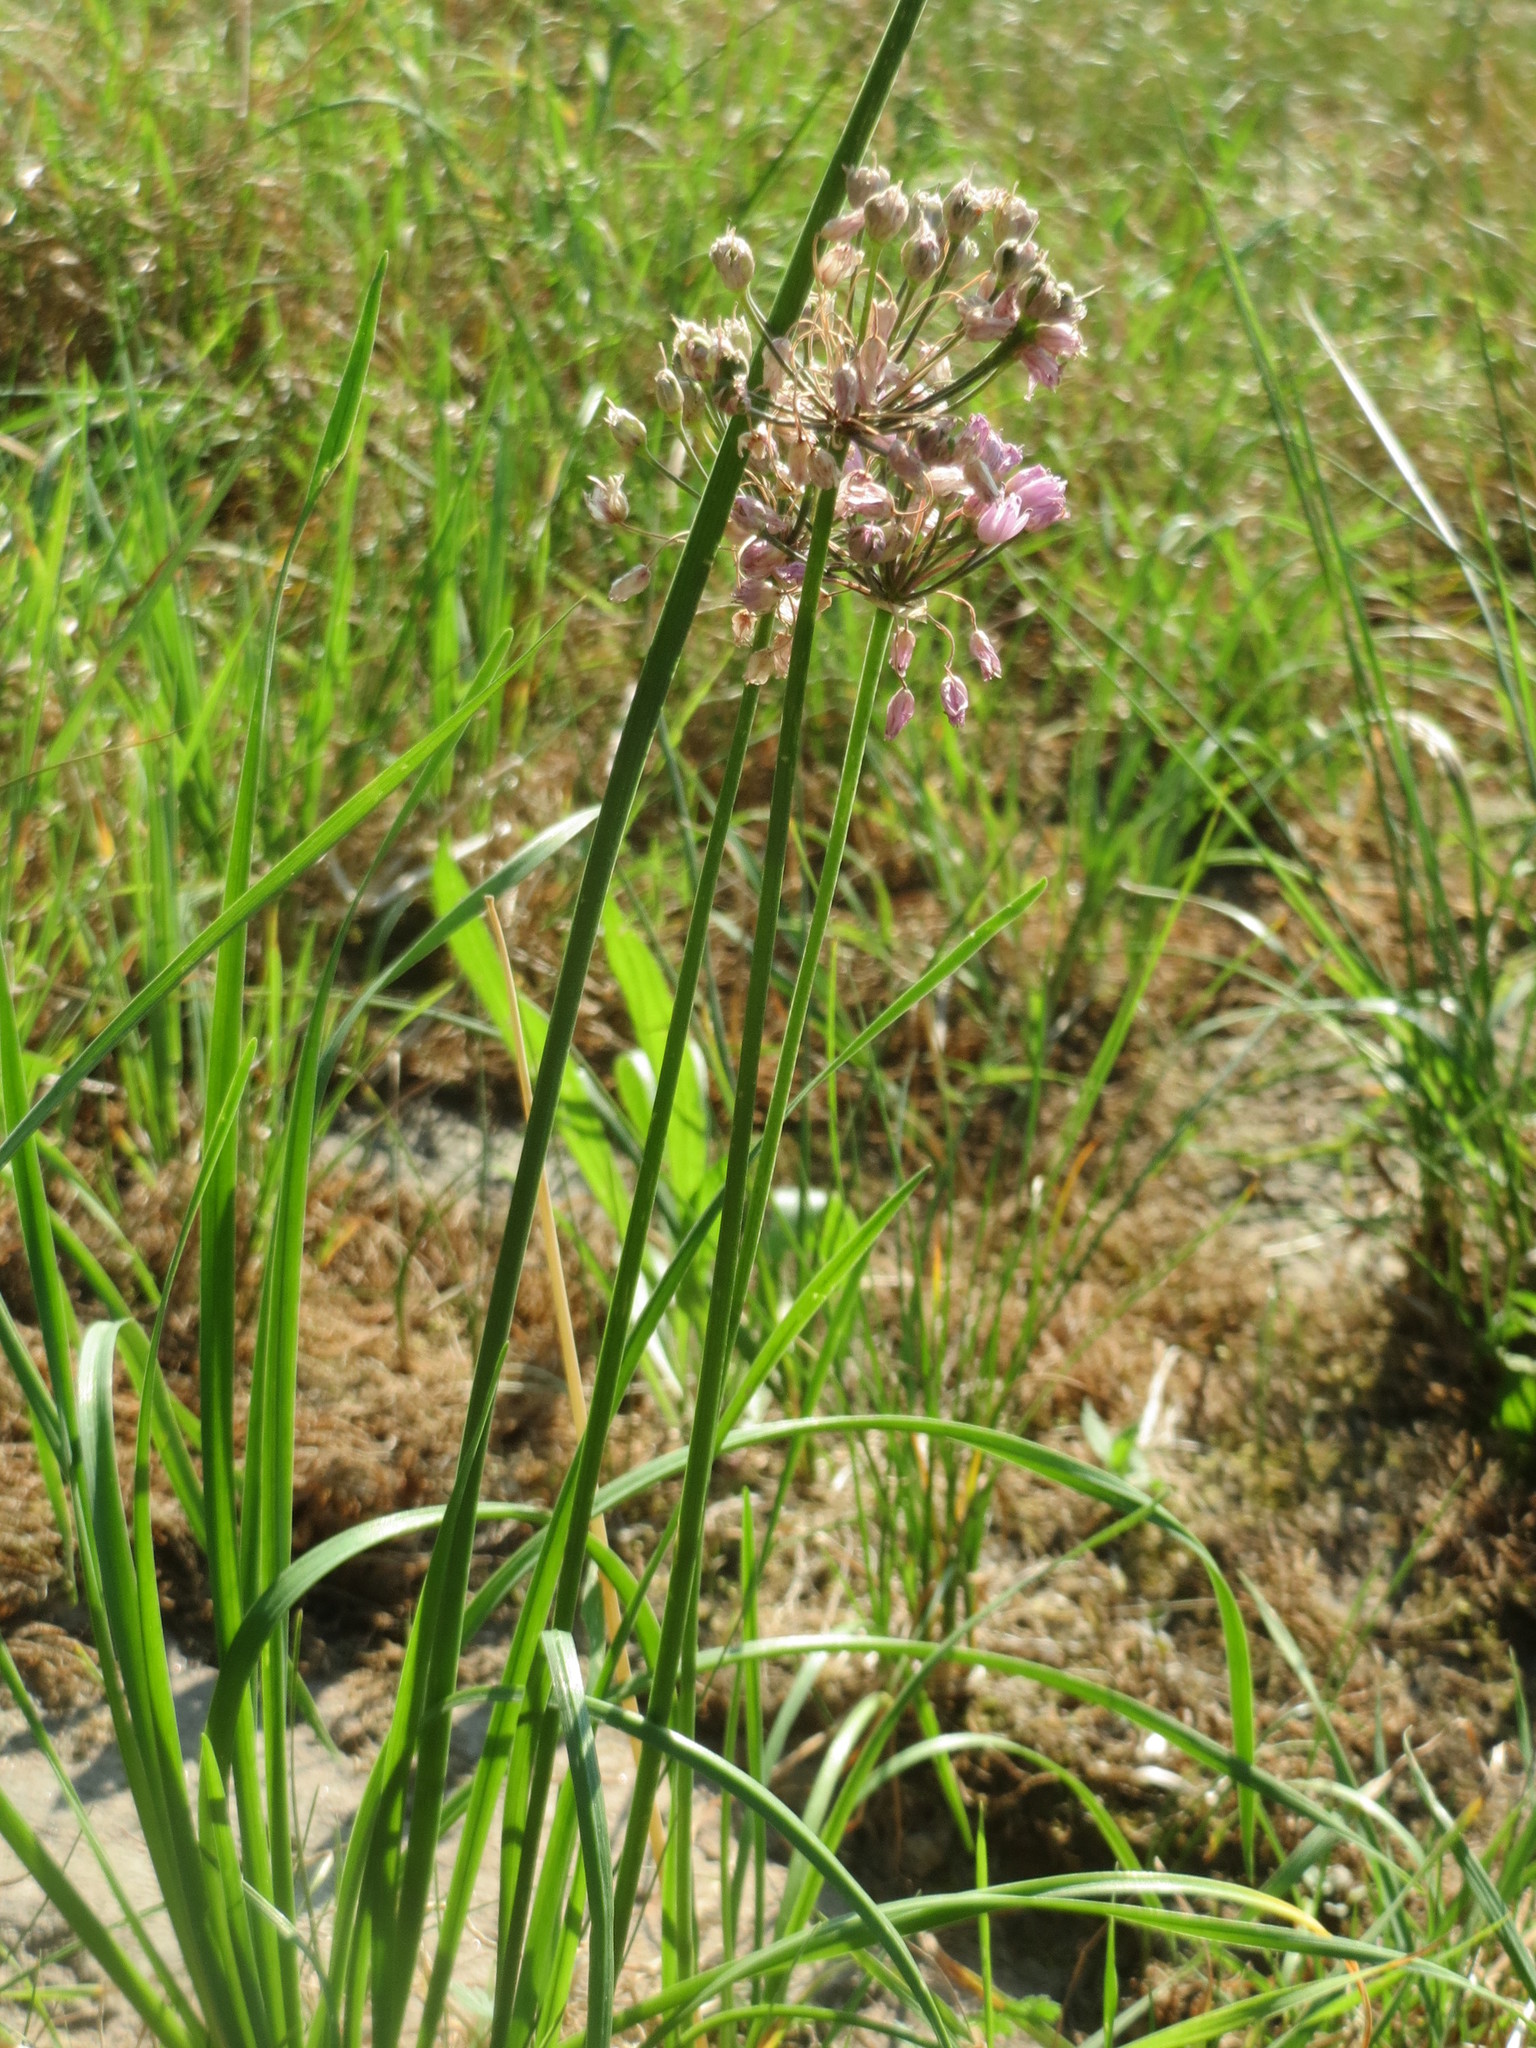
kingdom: Plantae
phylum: Tracheophyta
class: Liliopsida
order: Asparagales
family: Amaryllidaceae
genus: Allium
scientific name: Allium angulosum
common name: Mouse garlic
